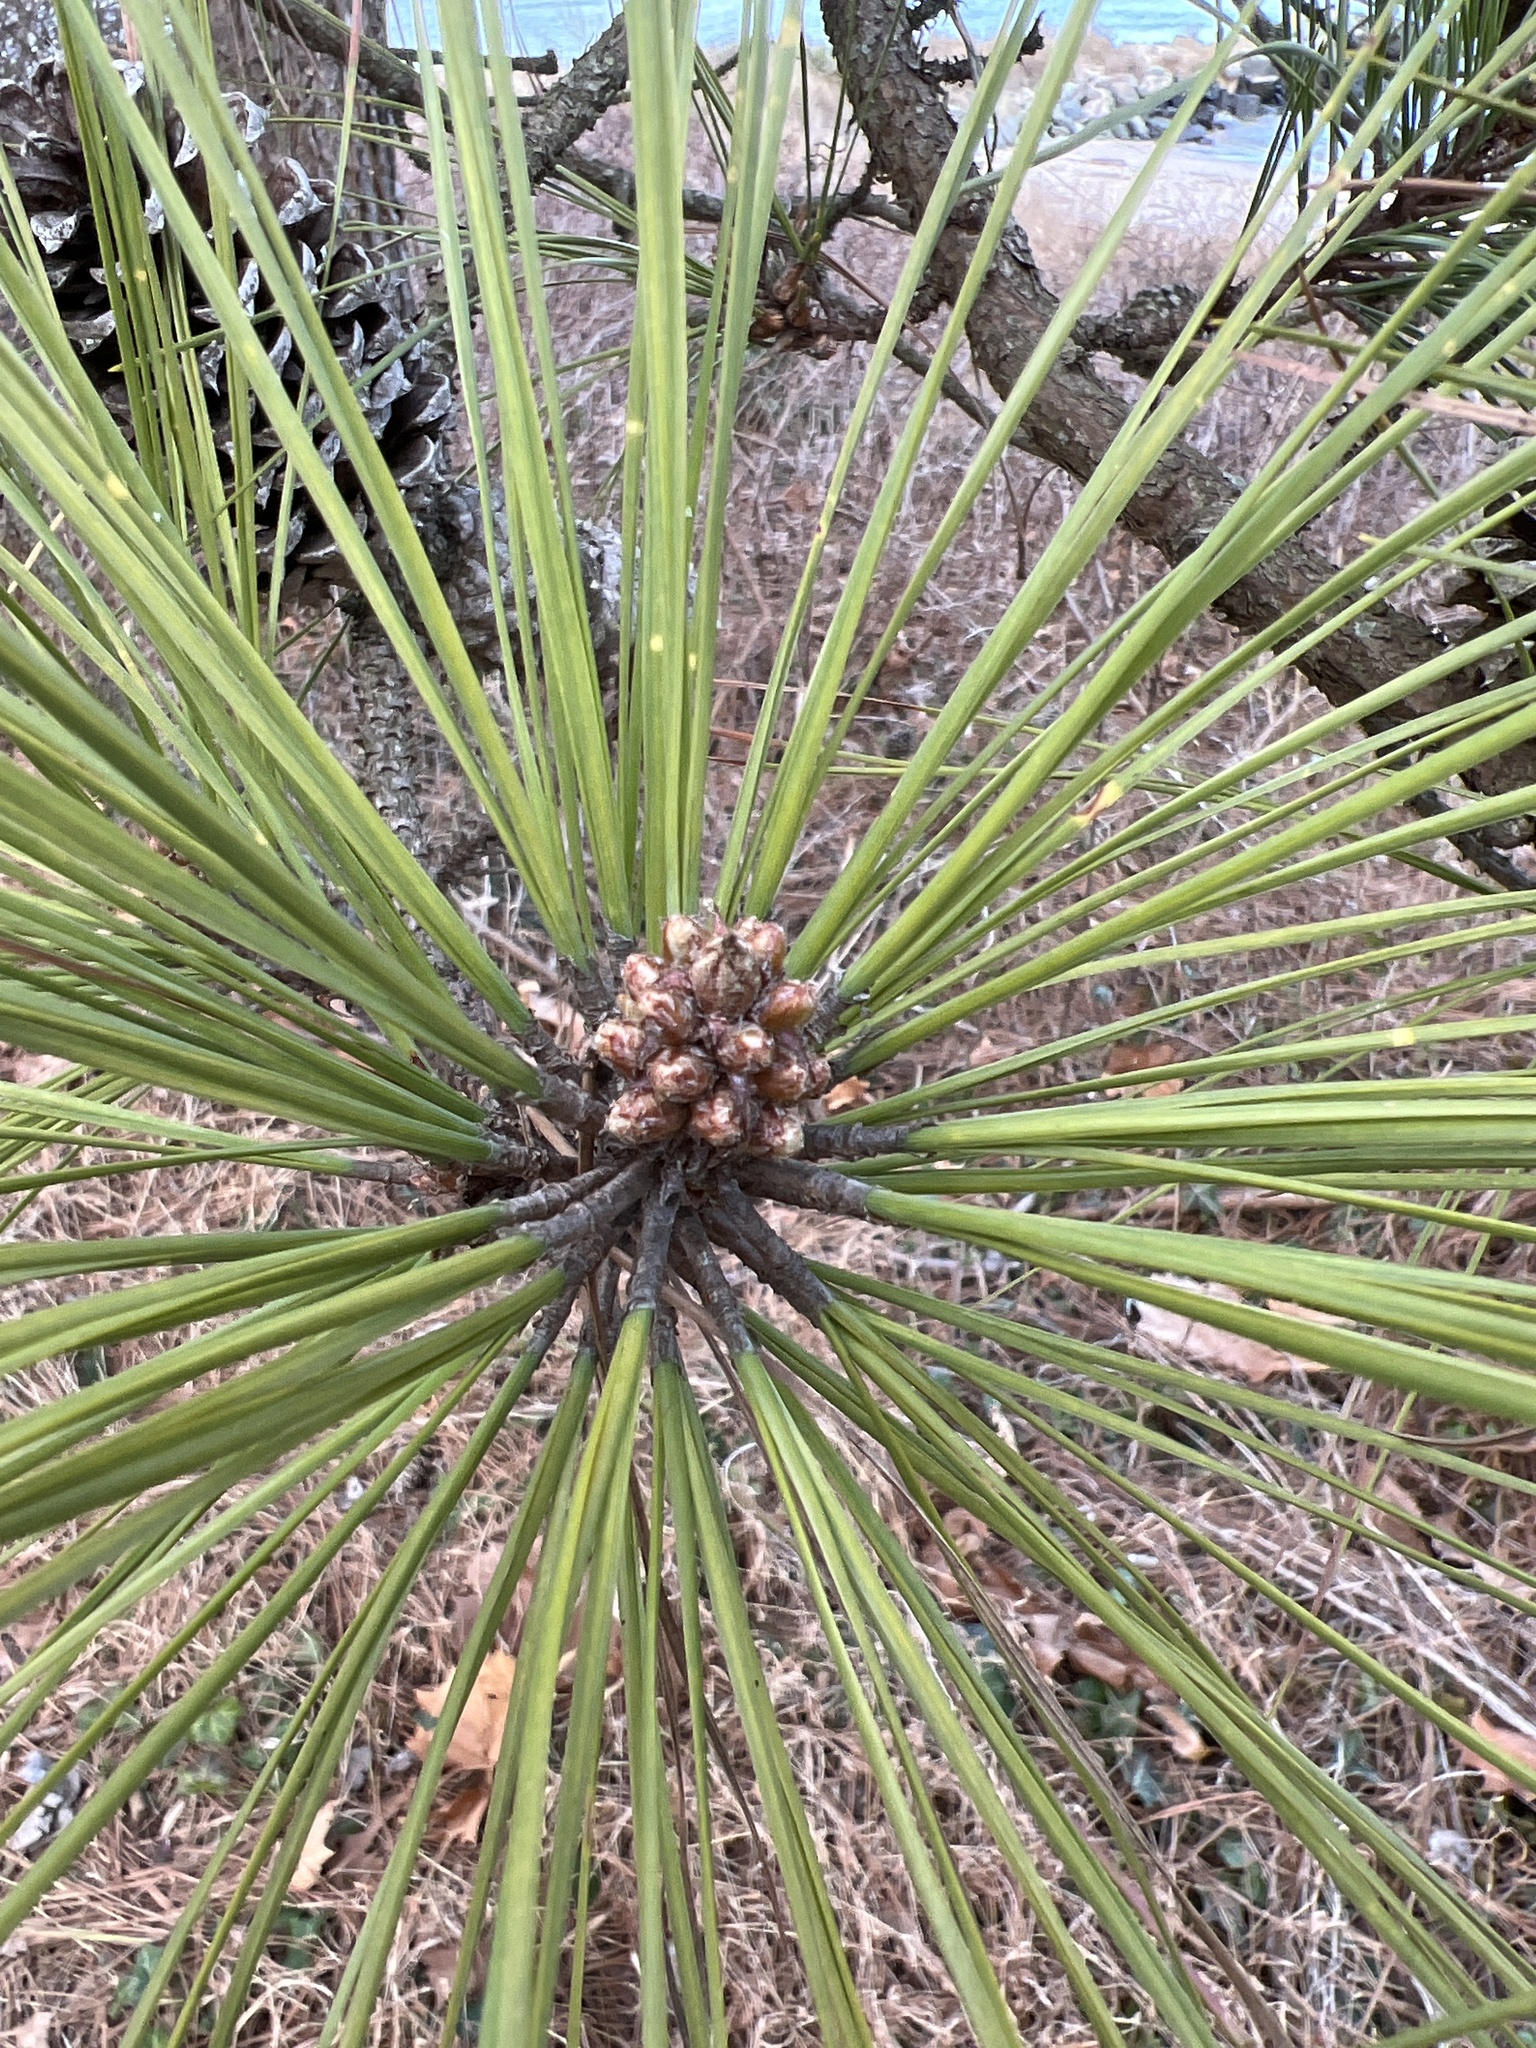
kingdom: Plantae
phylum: Tracheophyta
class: Pinopsida
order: Pinales
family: Pinaceae
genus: Pinus
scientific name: Pinus taeda
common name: Loblolly pine
